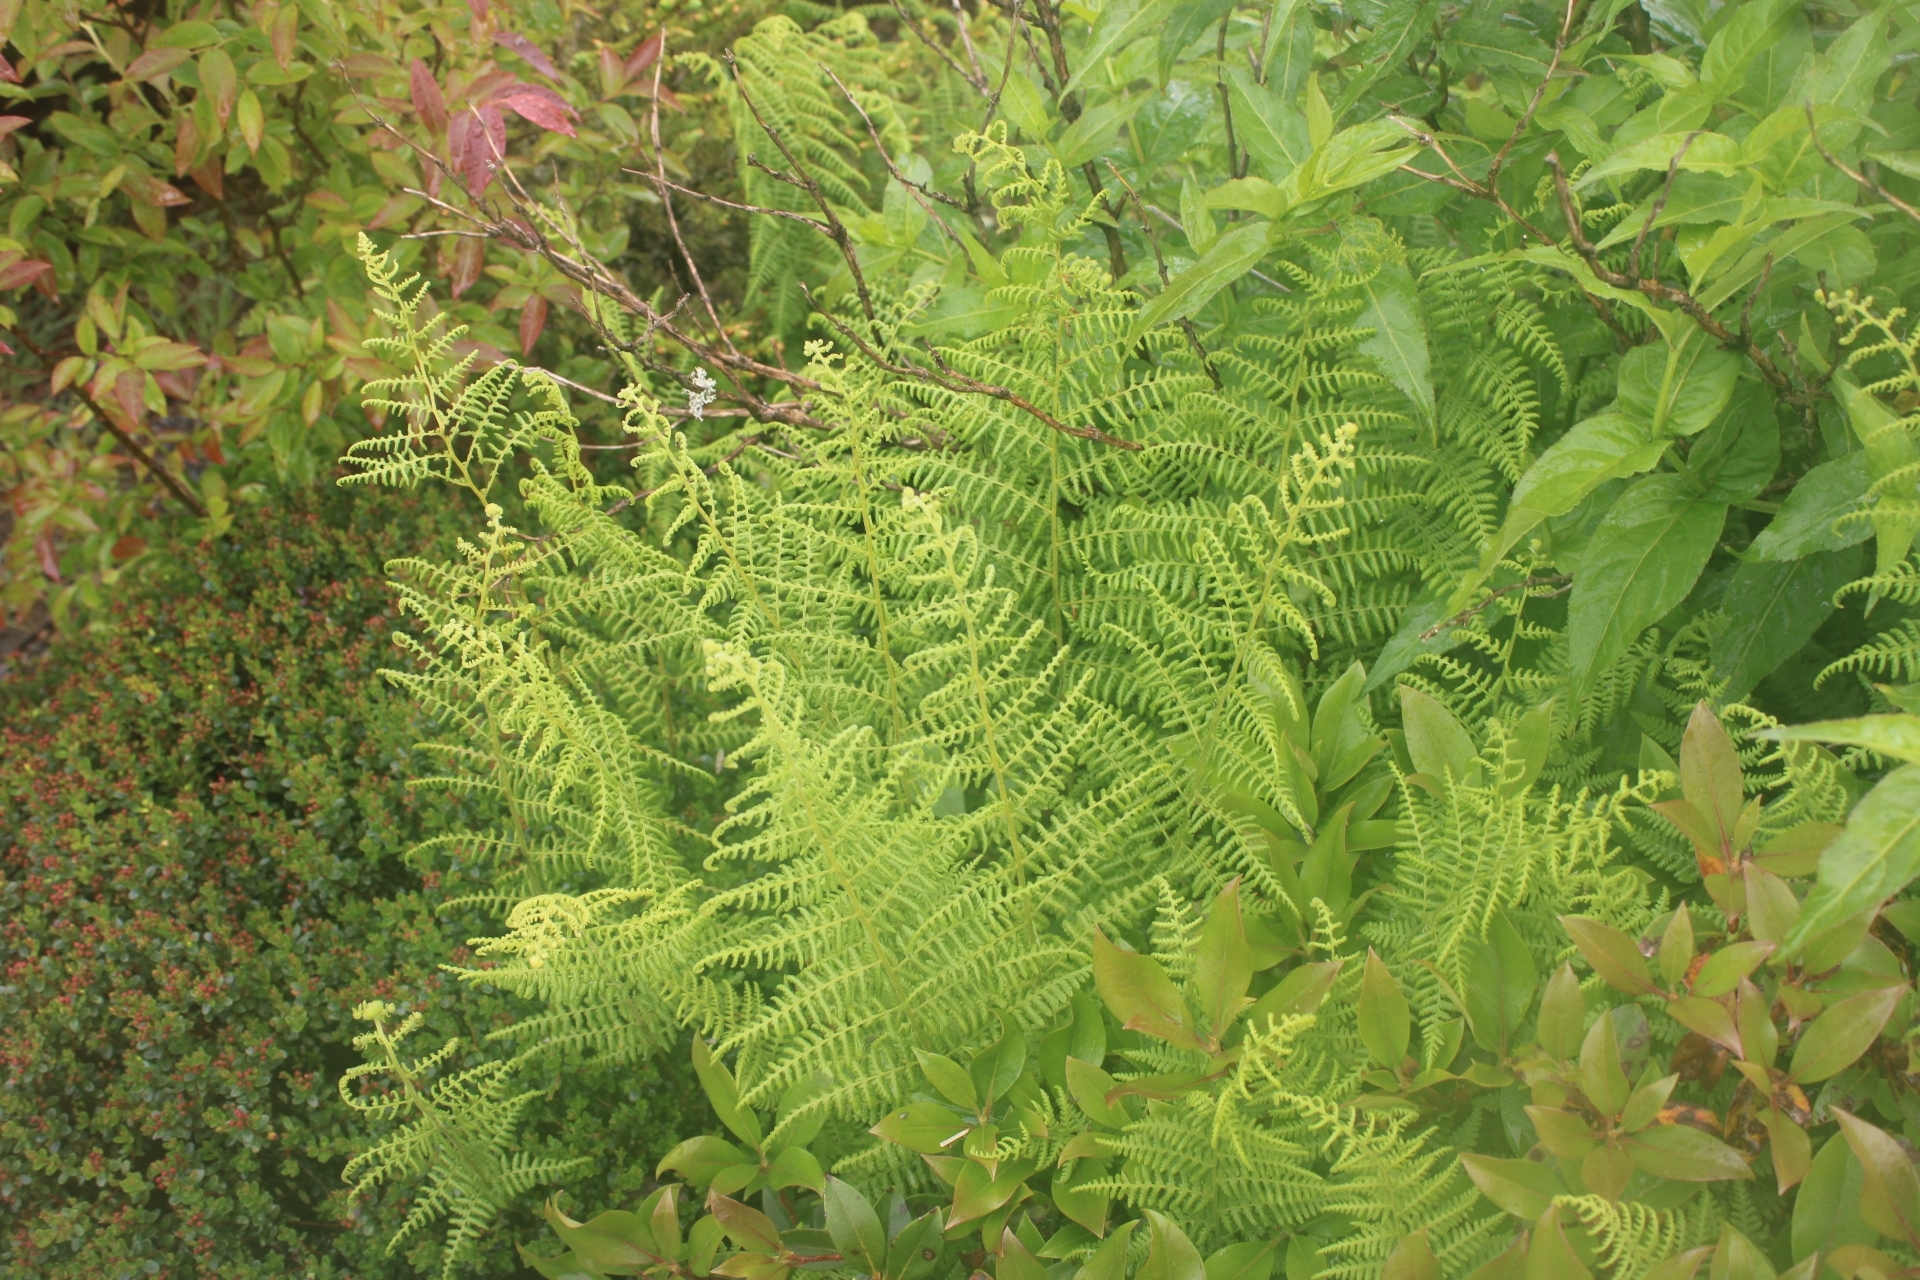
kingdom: Plantae
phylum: Tracheophyta
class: Polypodiopsida
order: Polypodiales
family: Dennstaedtiaceae
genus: Sitobolium
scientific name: Sitobolium punctilobum
